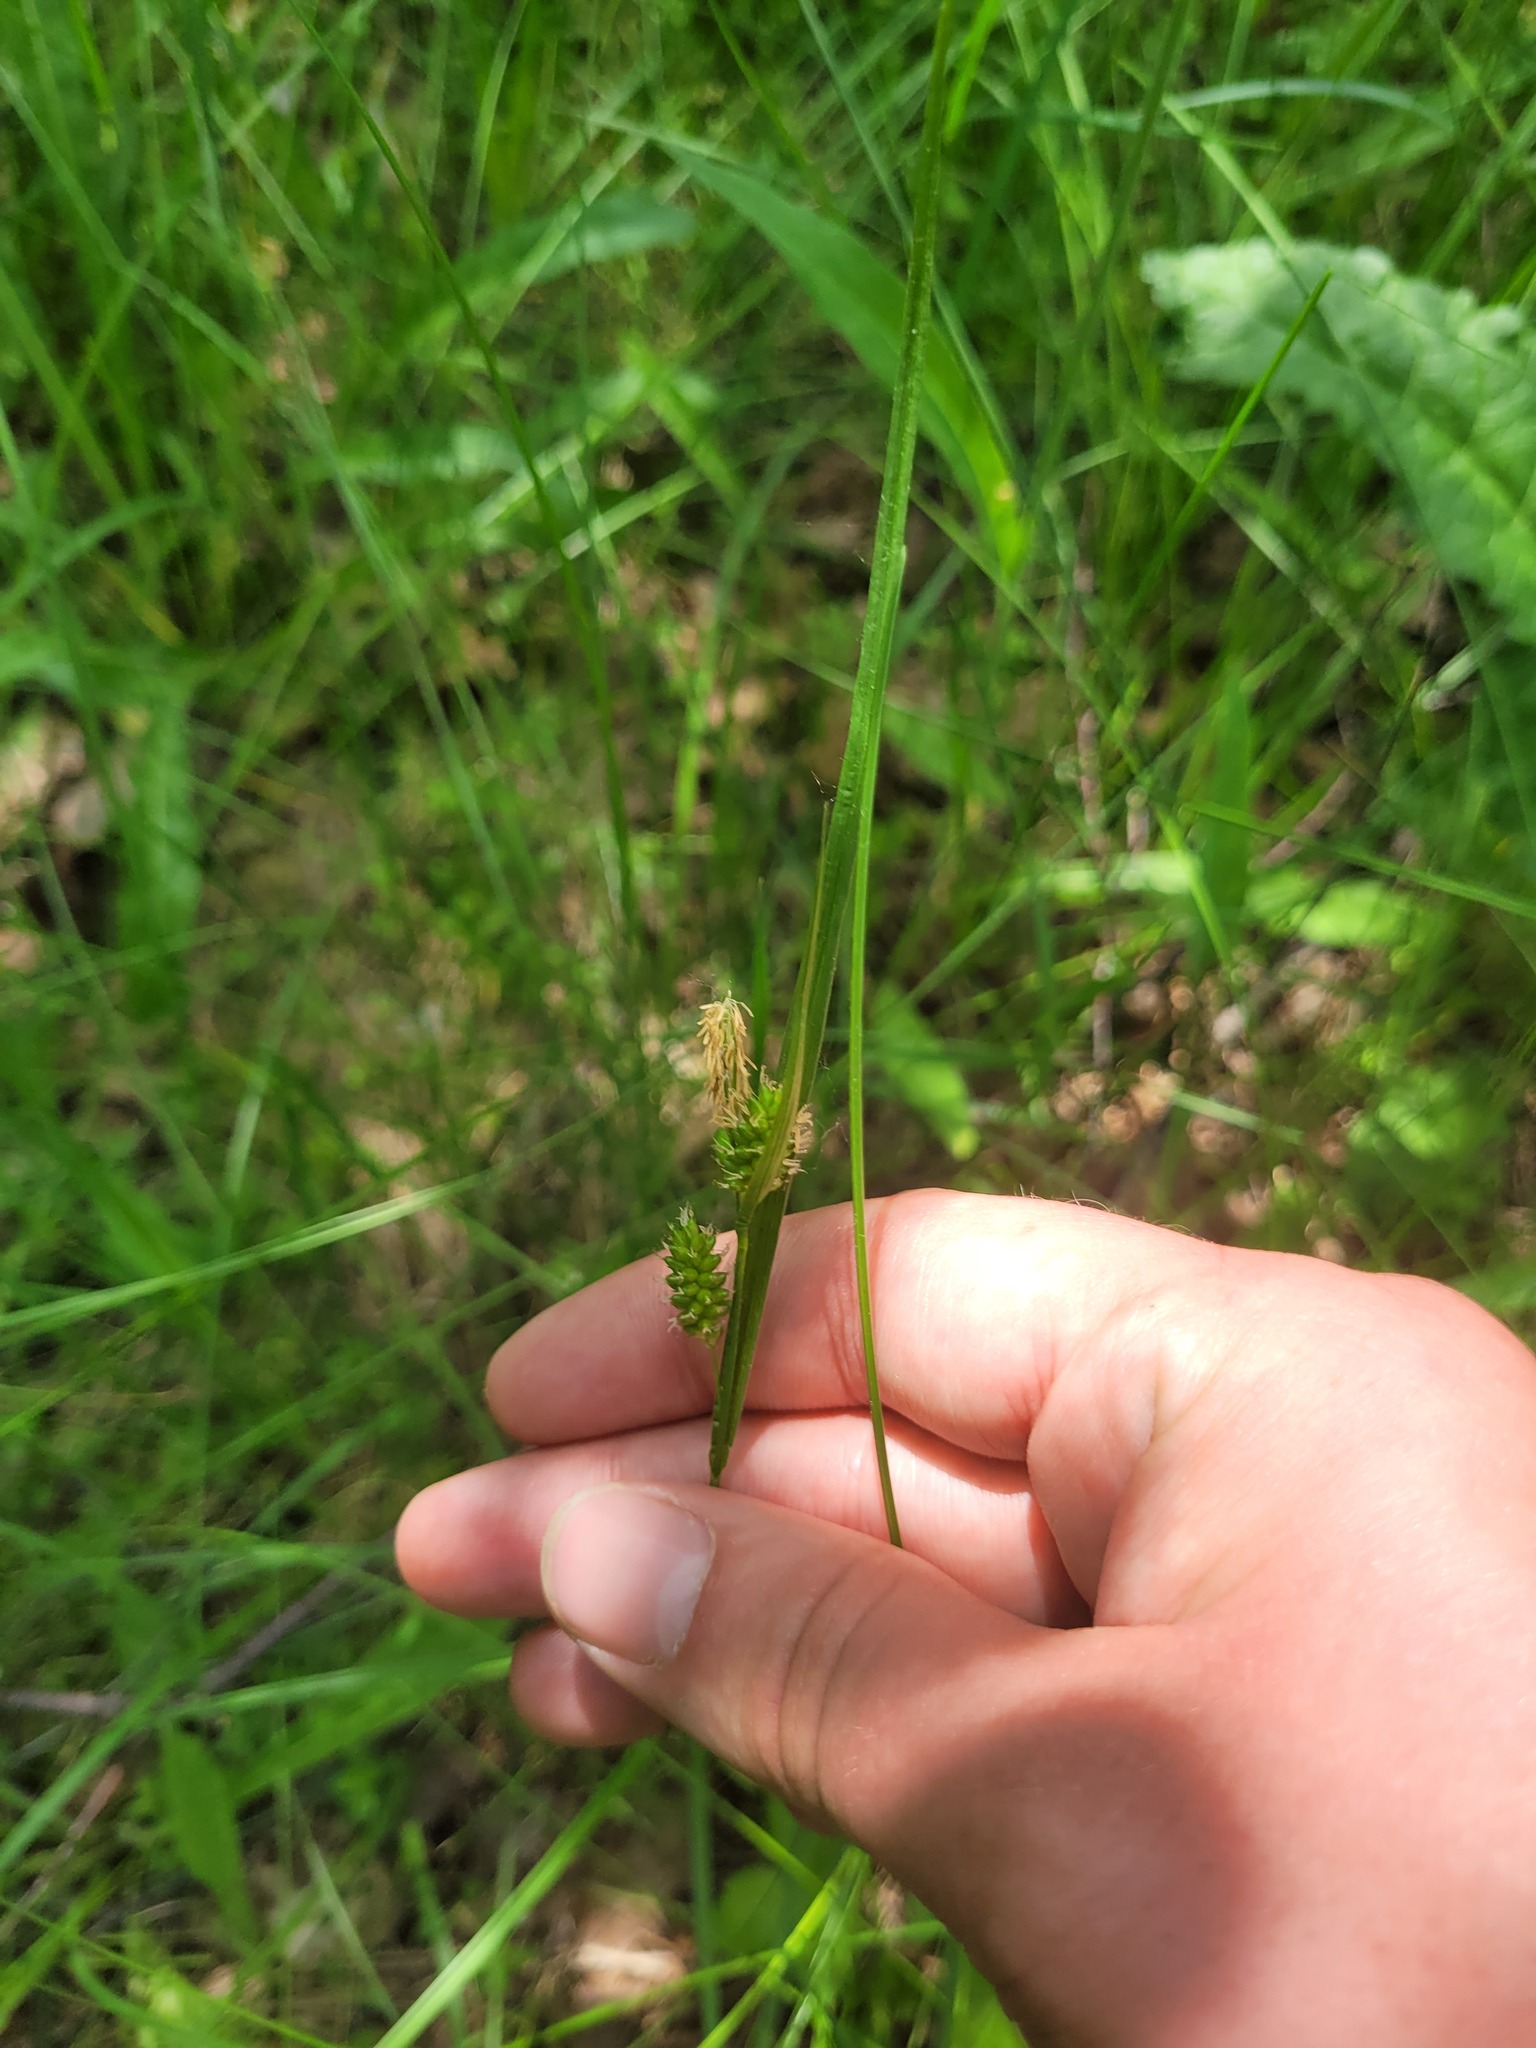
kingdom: Plantae
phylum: Tracheophyta
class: Liliopsida
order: Poales
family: Cyperaceae
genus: Carex
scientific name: Carex pallescens
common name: Pale sedge
